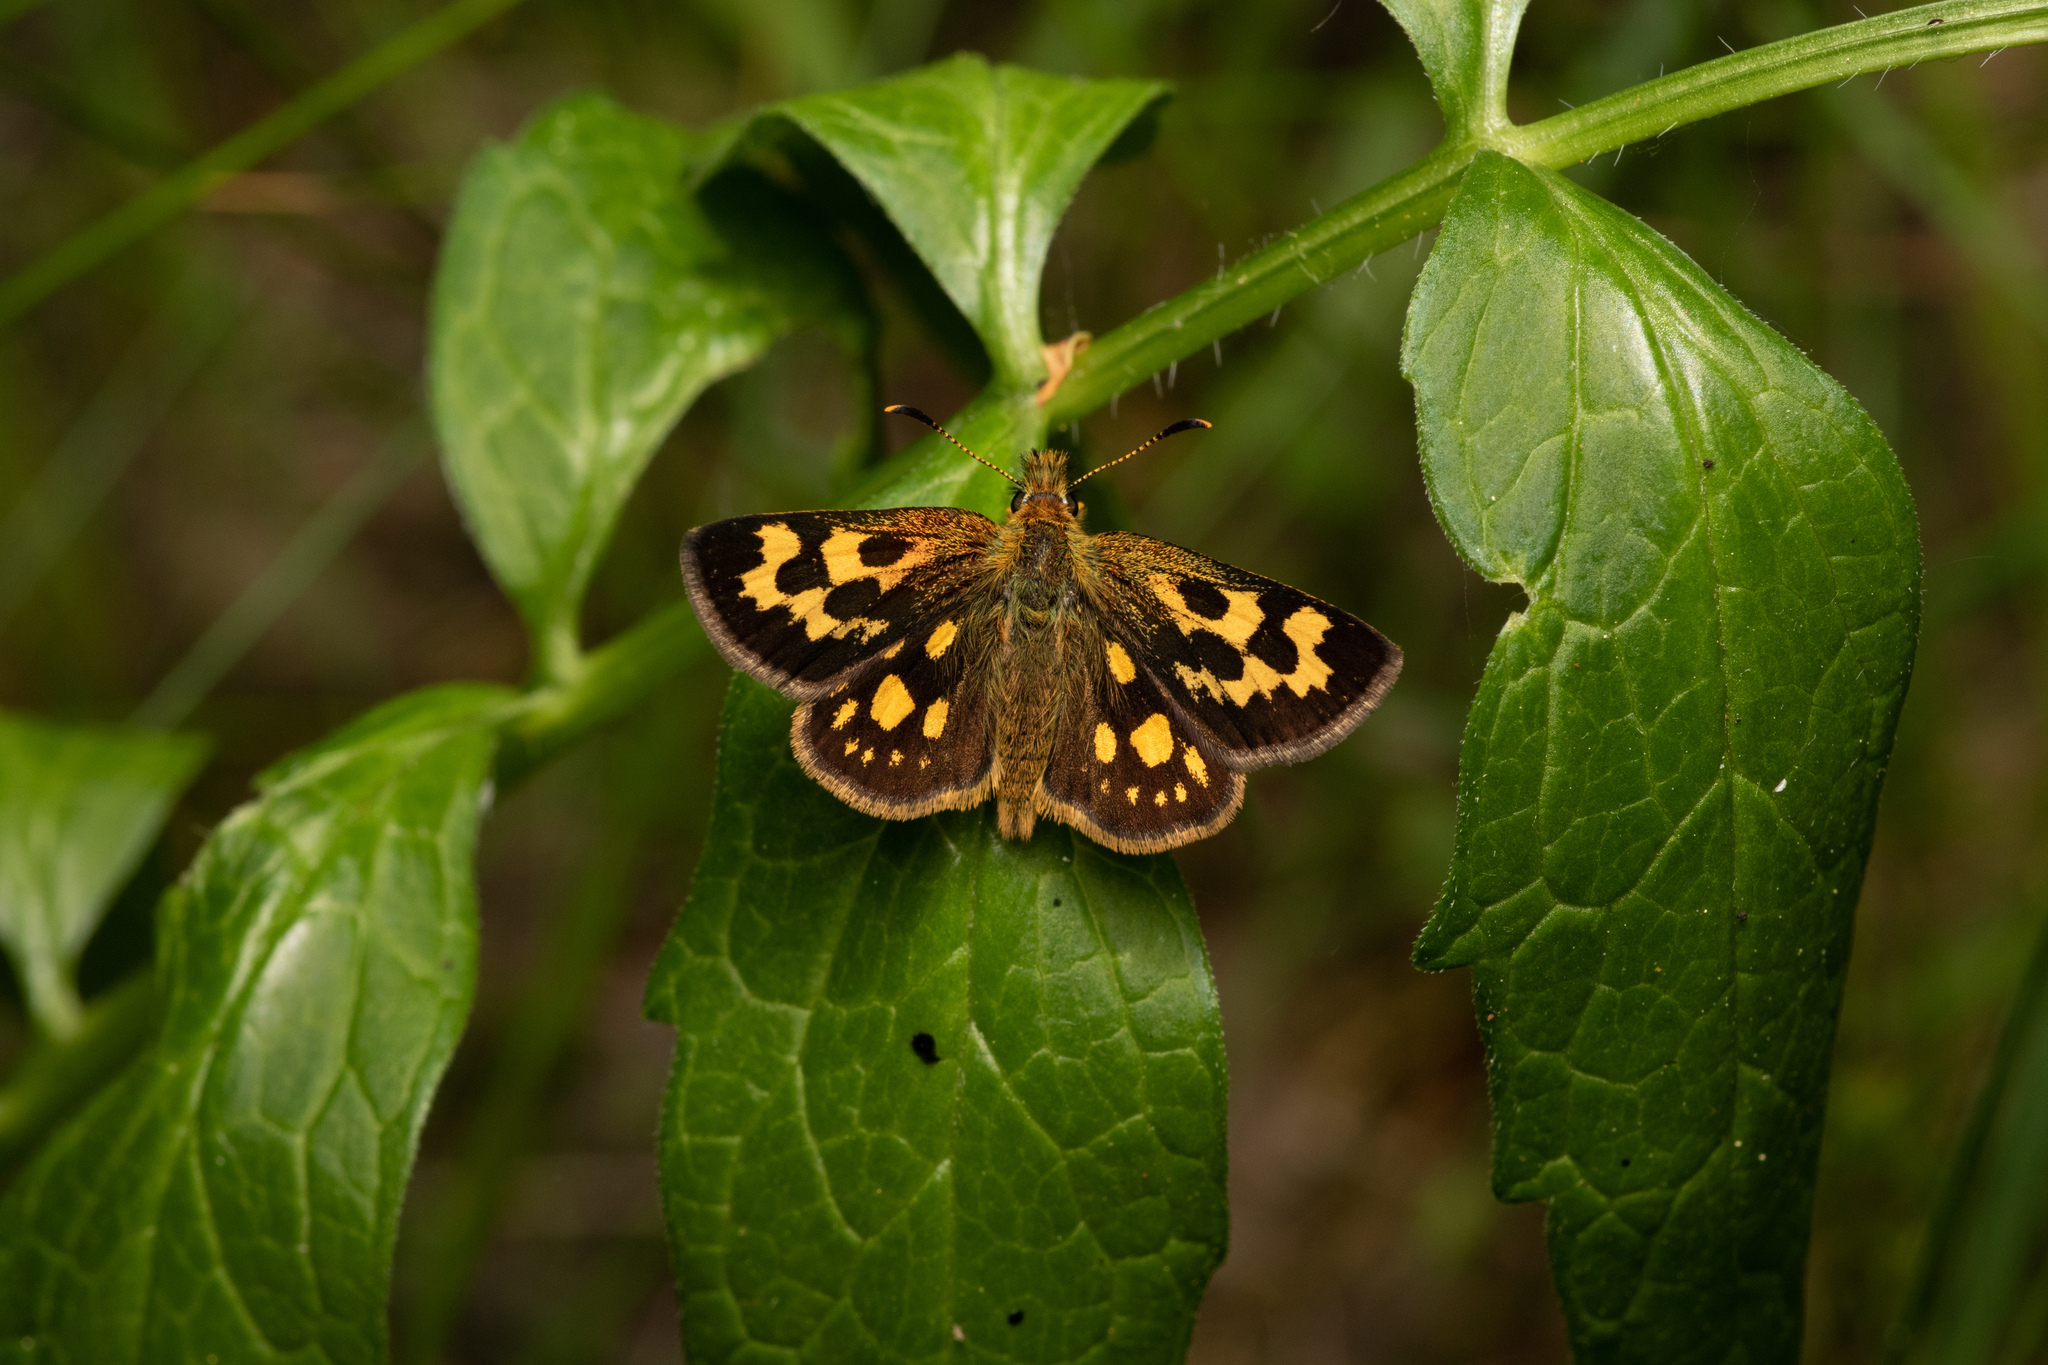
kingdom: Animalia
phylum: Arthropoda
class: Insecta
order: Lepidoptera
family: Hesperiidae
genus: Carterocephalus
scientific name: Carterocephalus silvicola
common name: Northern chequered skipper
